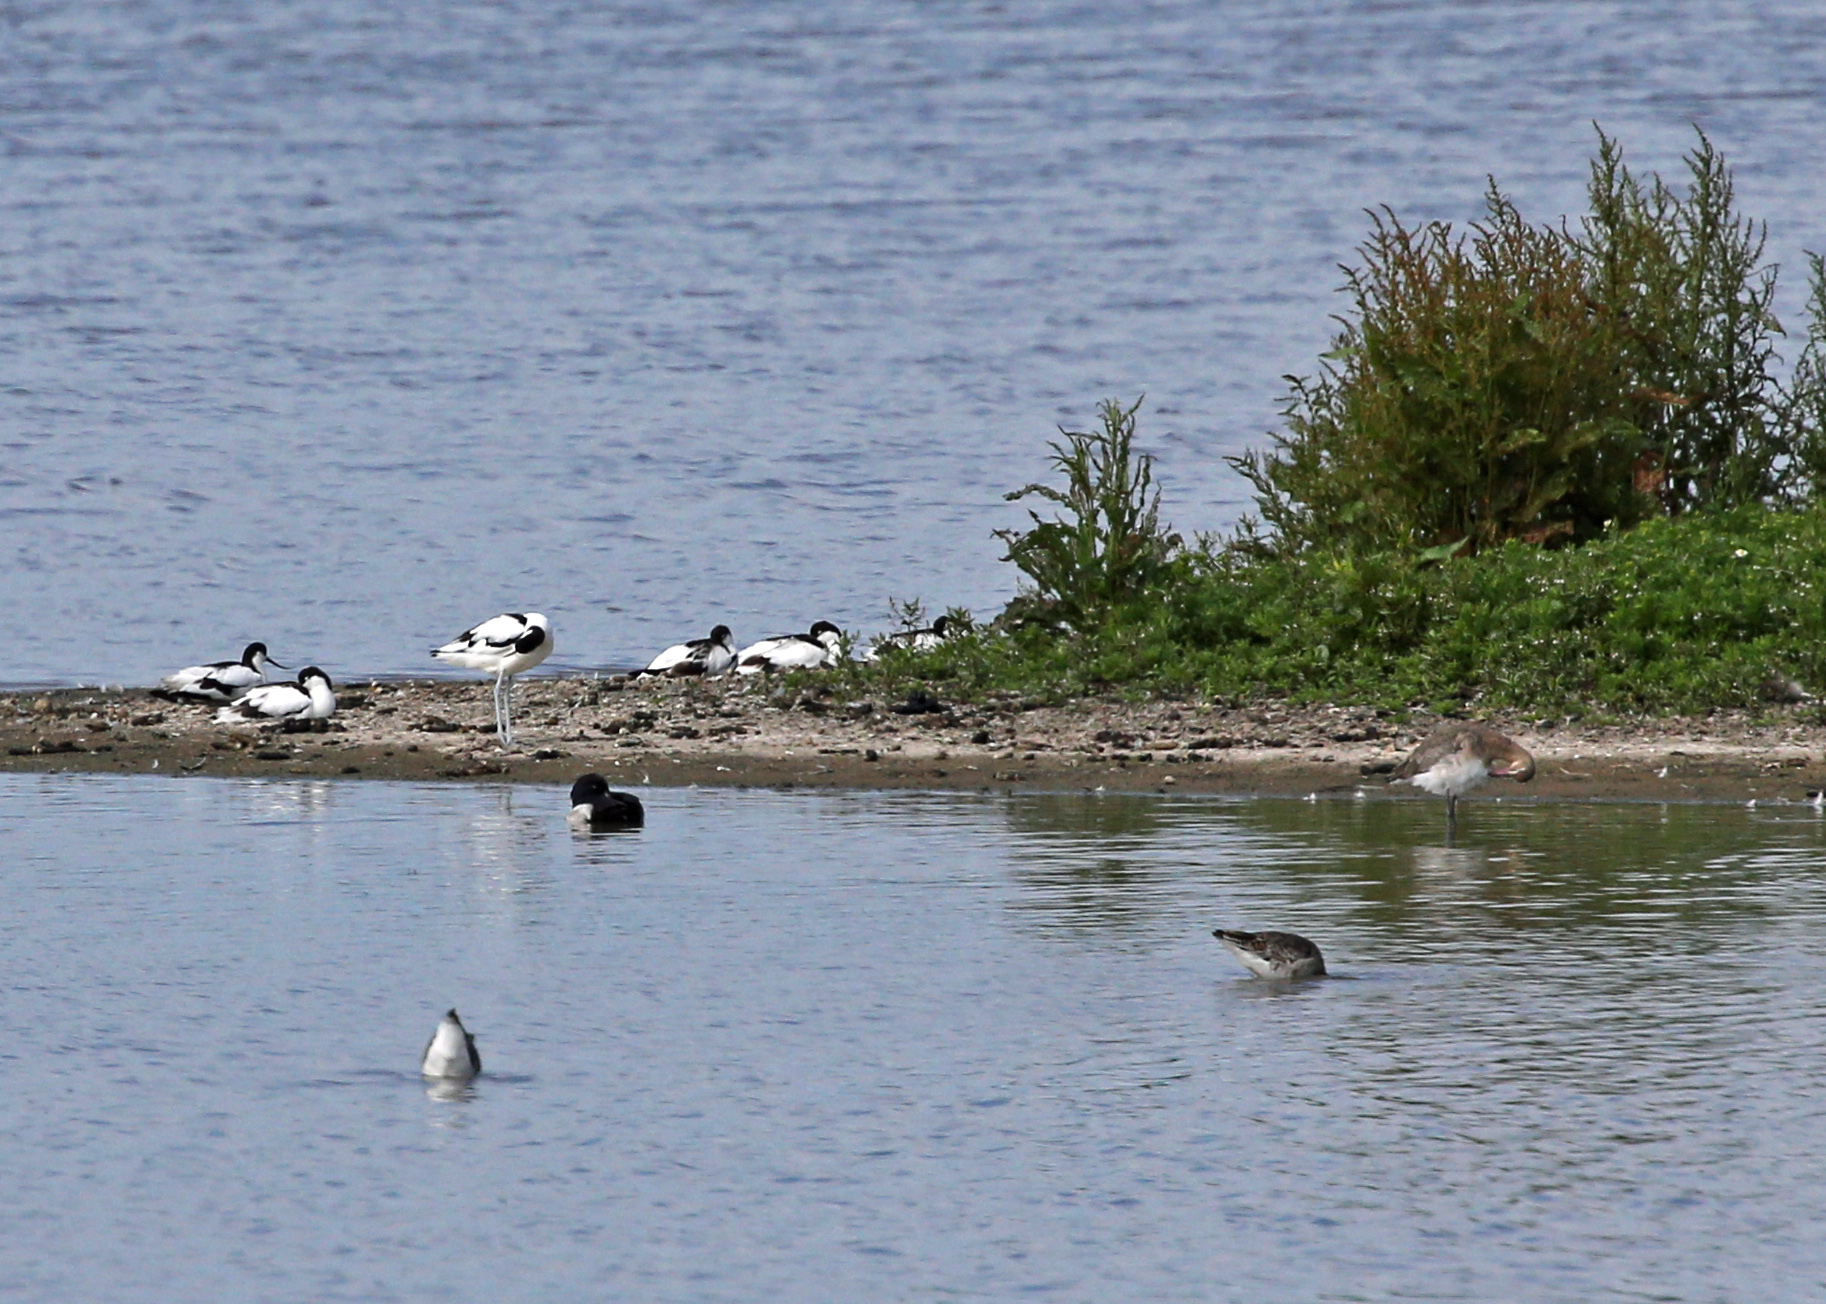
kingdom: Animalia
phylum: Chordata
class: Aves
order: Charadriiformes
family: Recurvirostridae
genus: Recurvirostra
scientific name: Recurvirostra avosetta
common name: Pied avocet
